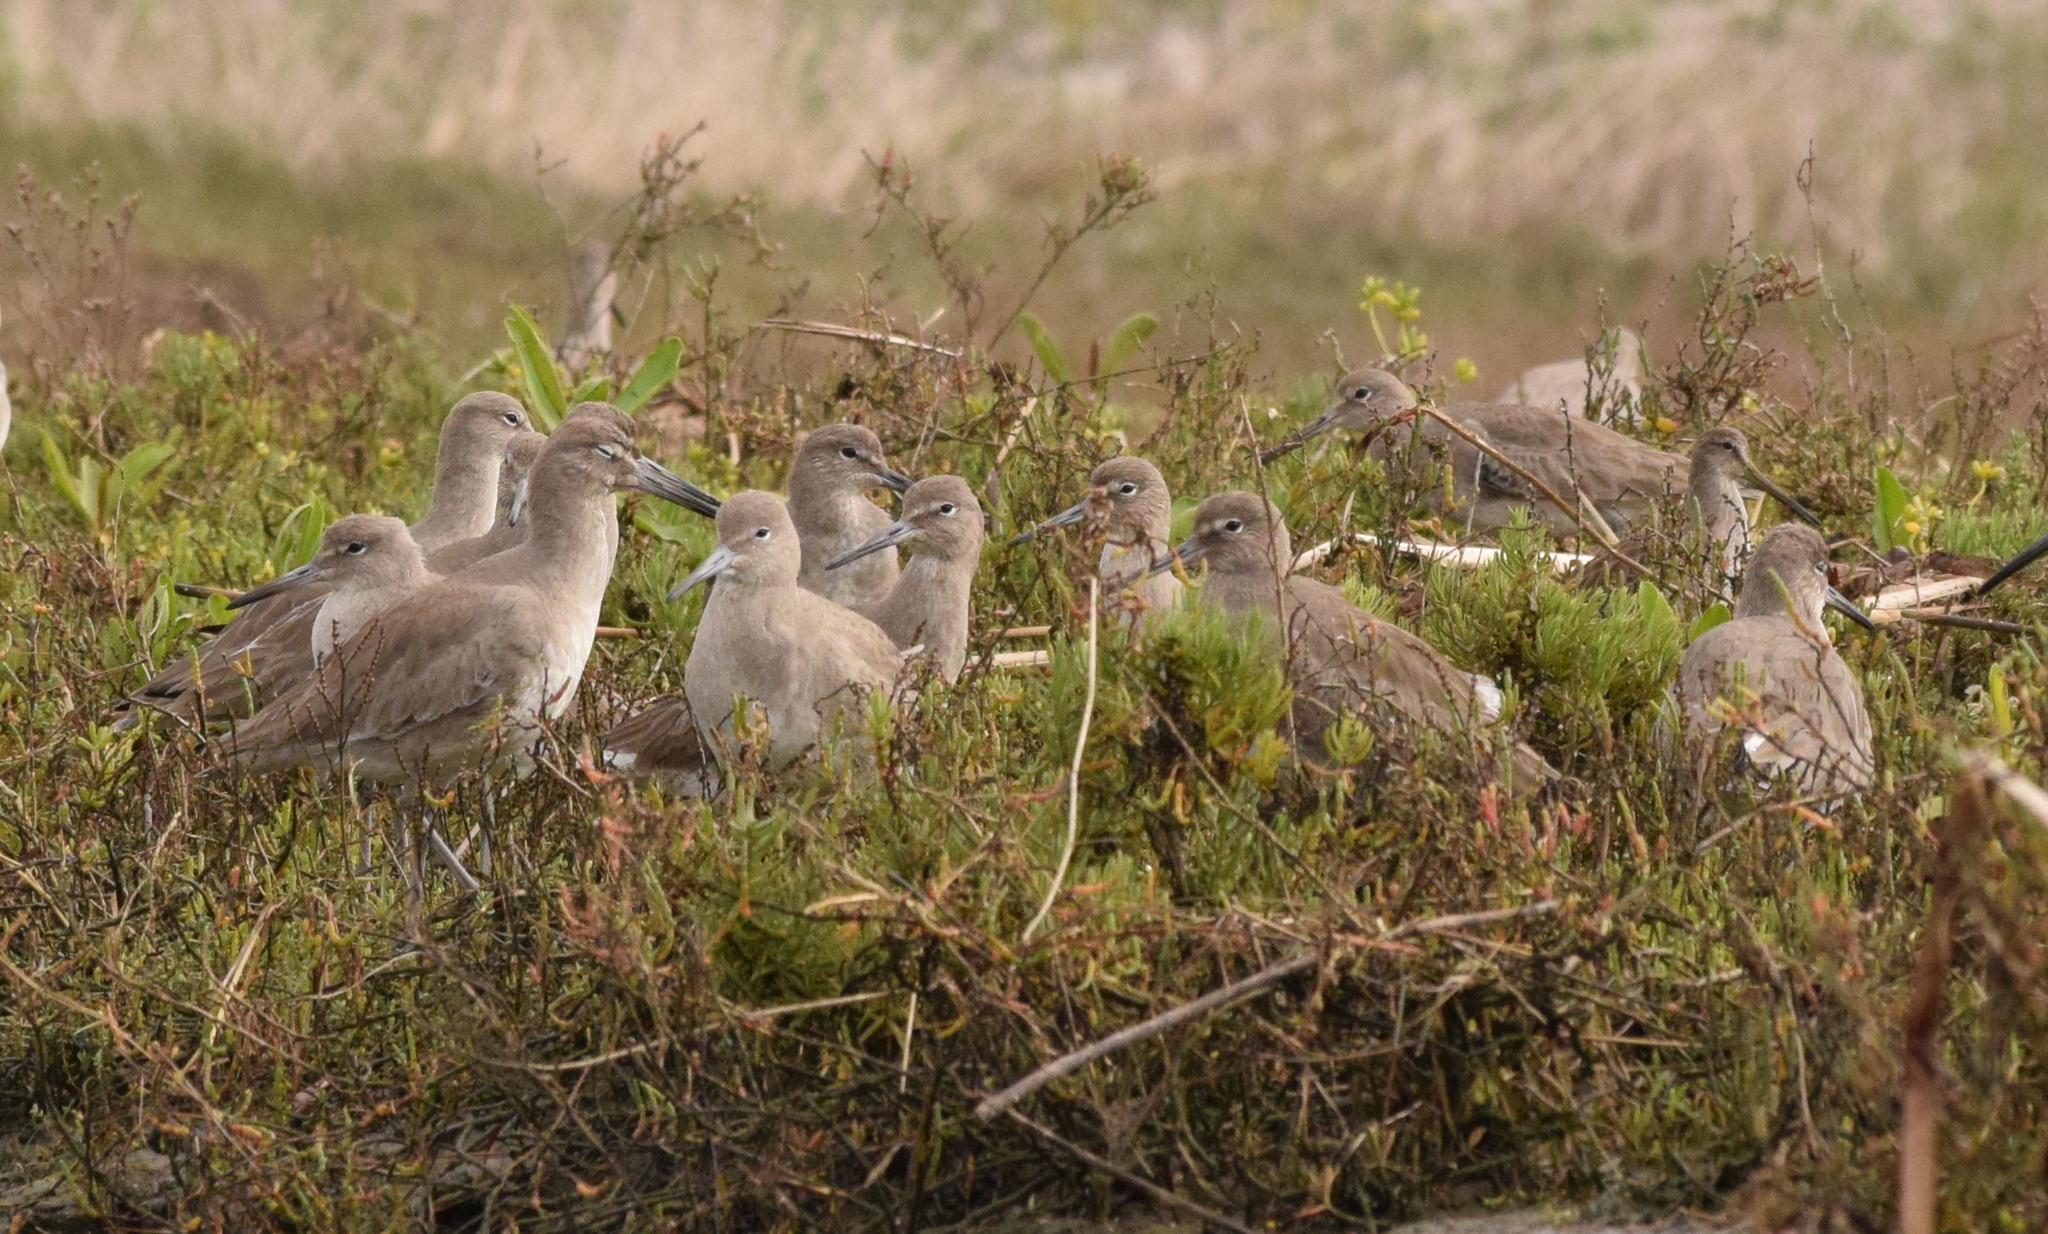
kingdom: Animalia
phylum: Chordata
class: Aves
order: Charadriiformes
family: Scolopacidae
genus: Tringa
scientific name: Tringa semipalmata
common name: Willet
